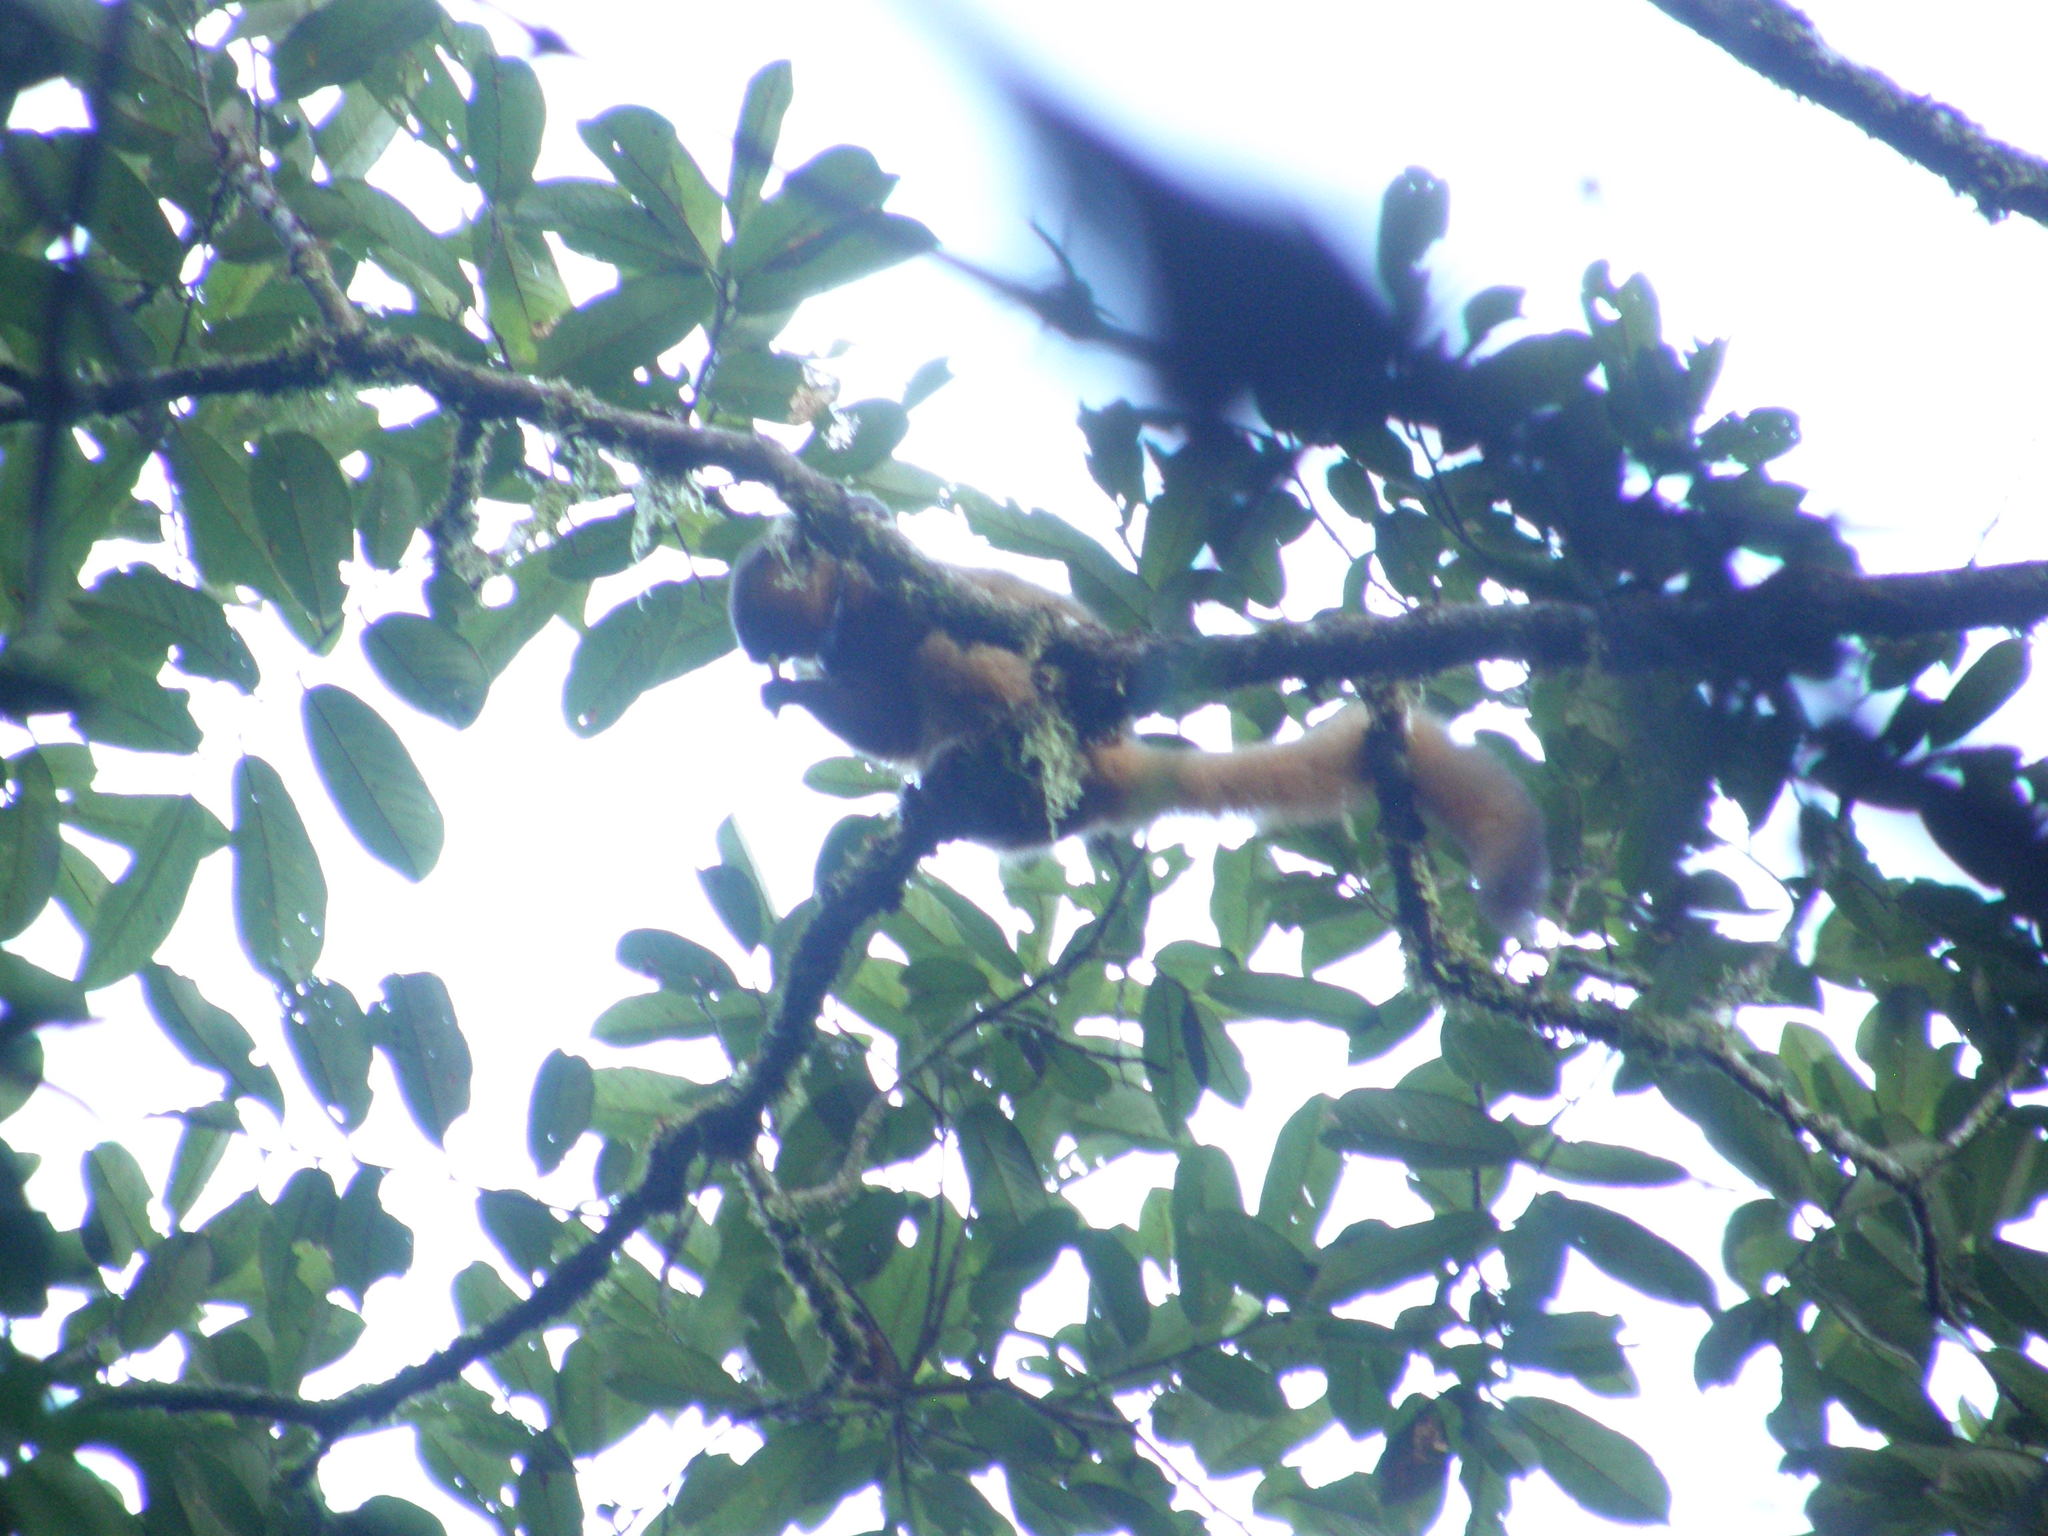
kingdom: Animalia
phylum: Chordata
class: Mammalia
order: Primates
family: Lemuridae
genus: Hapalemur
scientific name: Hapalemur aureus
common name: Golden bamboo lemur
